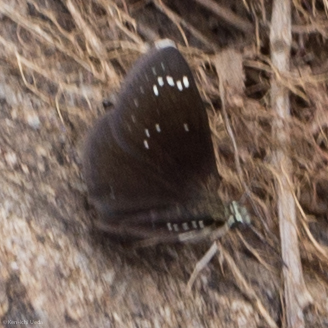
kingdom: Animalia
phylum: Arthropoda
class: Insecta
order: Lepidoptera
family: Hesperiidae
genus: Pholisora
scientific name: Pholisora catullus
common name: Common sootywing
